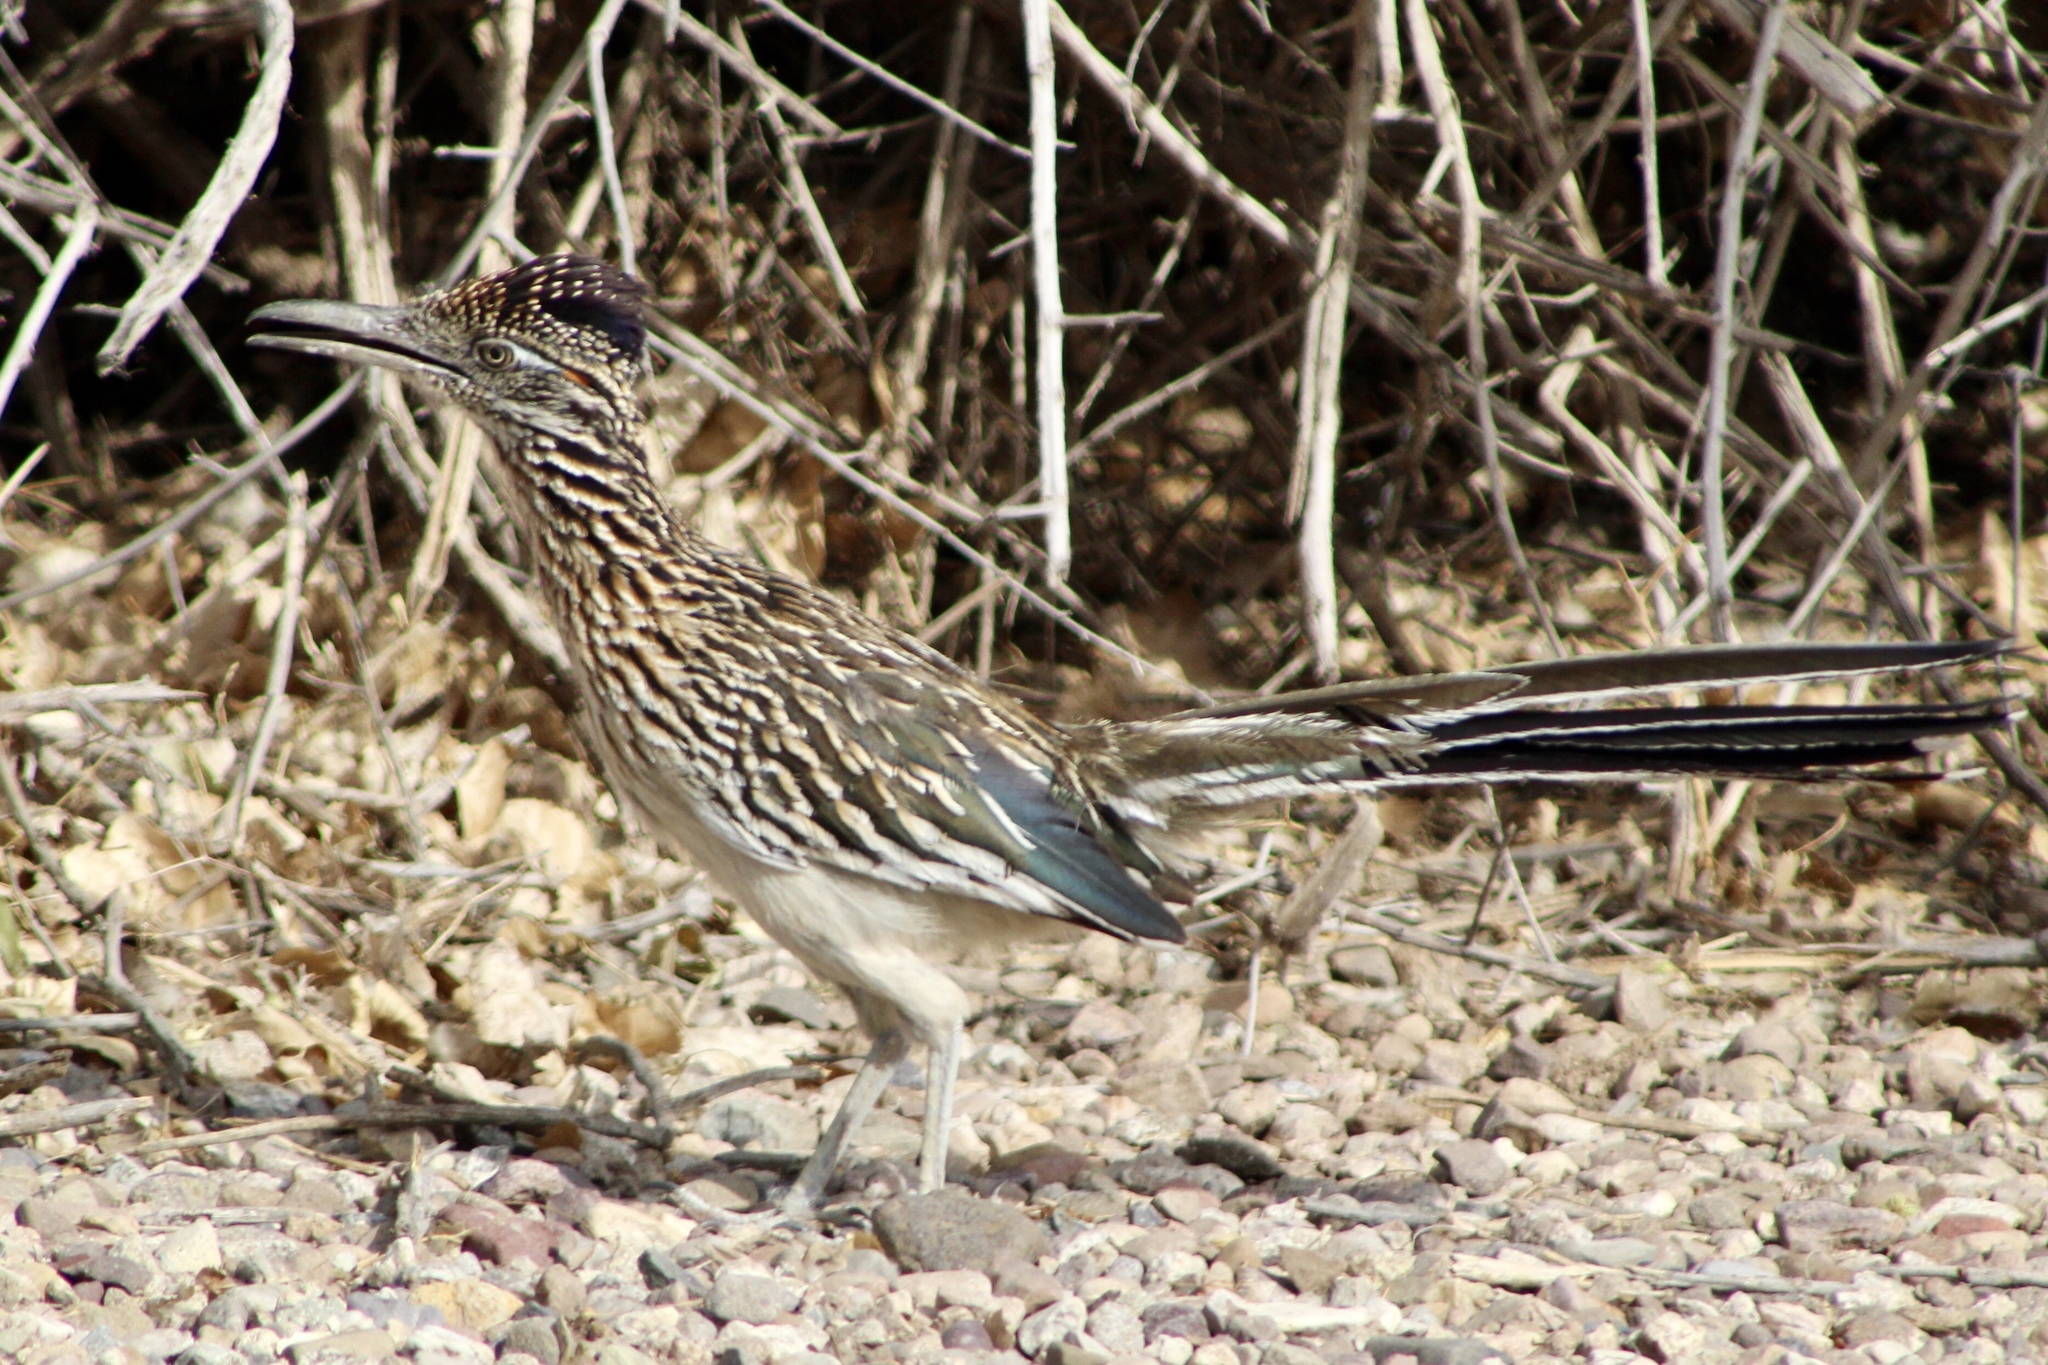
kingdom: Animalia
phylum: Chordata
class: Aves
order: Cuculiformes
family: Cuculidae
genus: Geococcyx
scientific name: Geococcyx californianus
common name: Greater roadrunner
